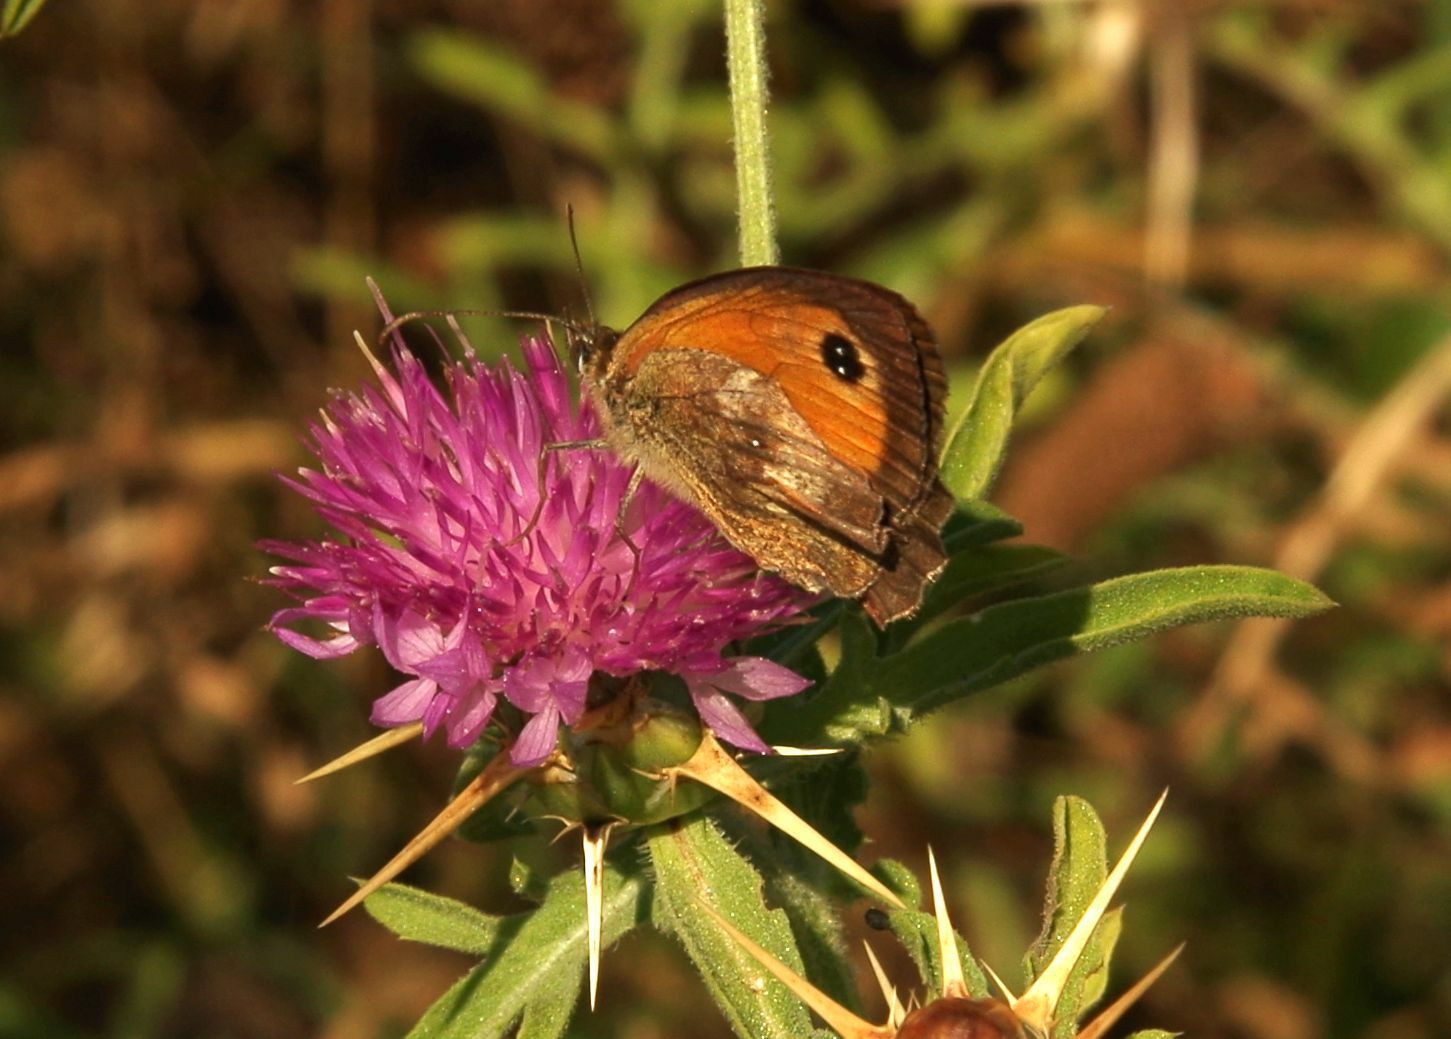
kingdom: Animalia
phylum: Arthropoda
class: Insecta
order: Lepidoptera
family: Nymphalidae
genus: Pyronia
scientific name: Pyronia tithonus
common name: Gatekeeper
